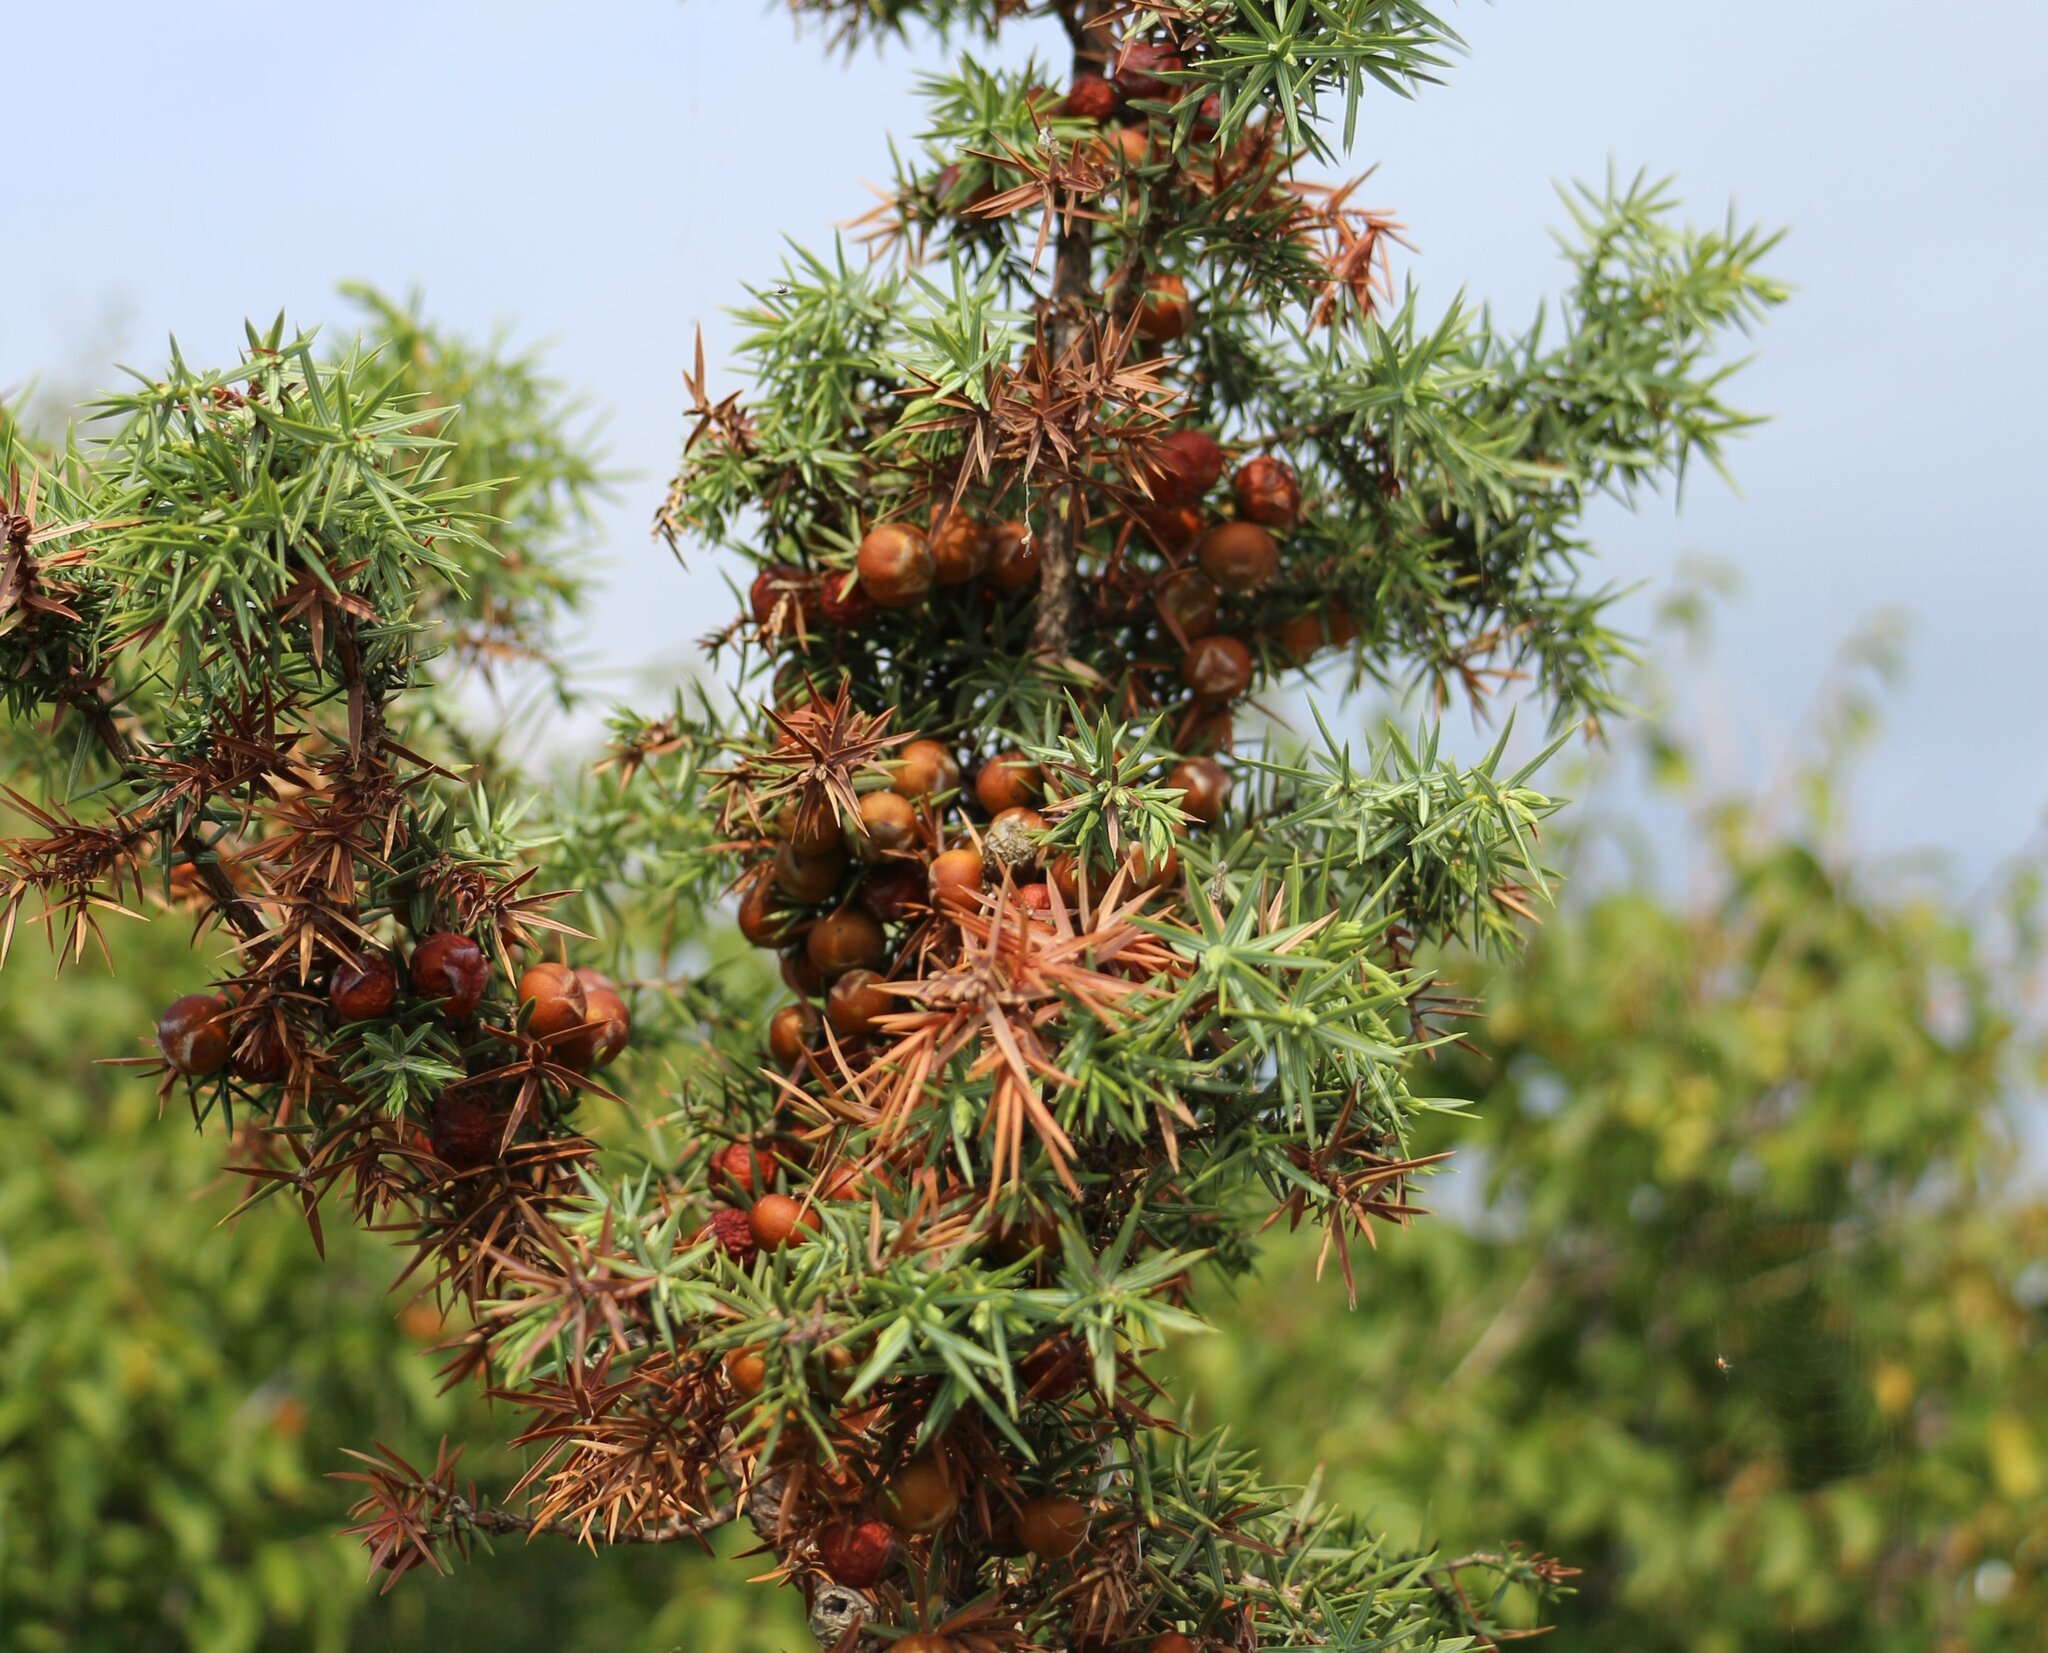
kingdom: Plantae
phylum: Tracheophyta
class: Pinopsida
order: Pinales
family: Cupressaceae
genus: Juniperus
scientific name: Juniperus oxycedrus
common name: Prickly juniper
